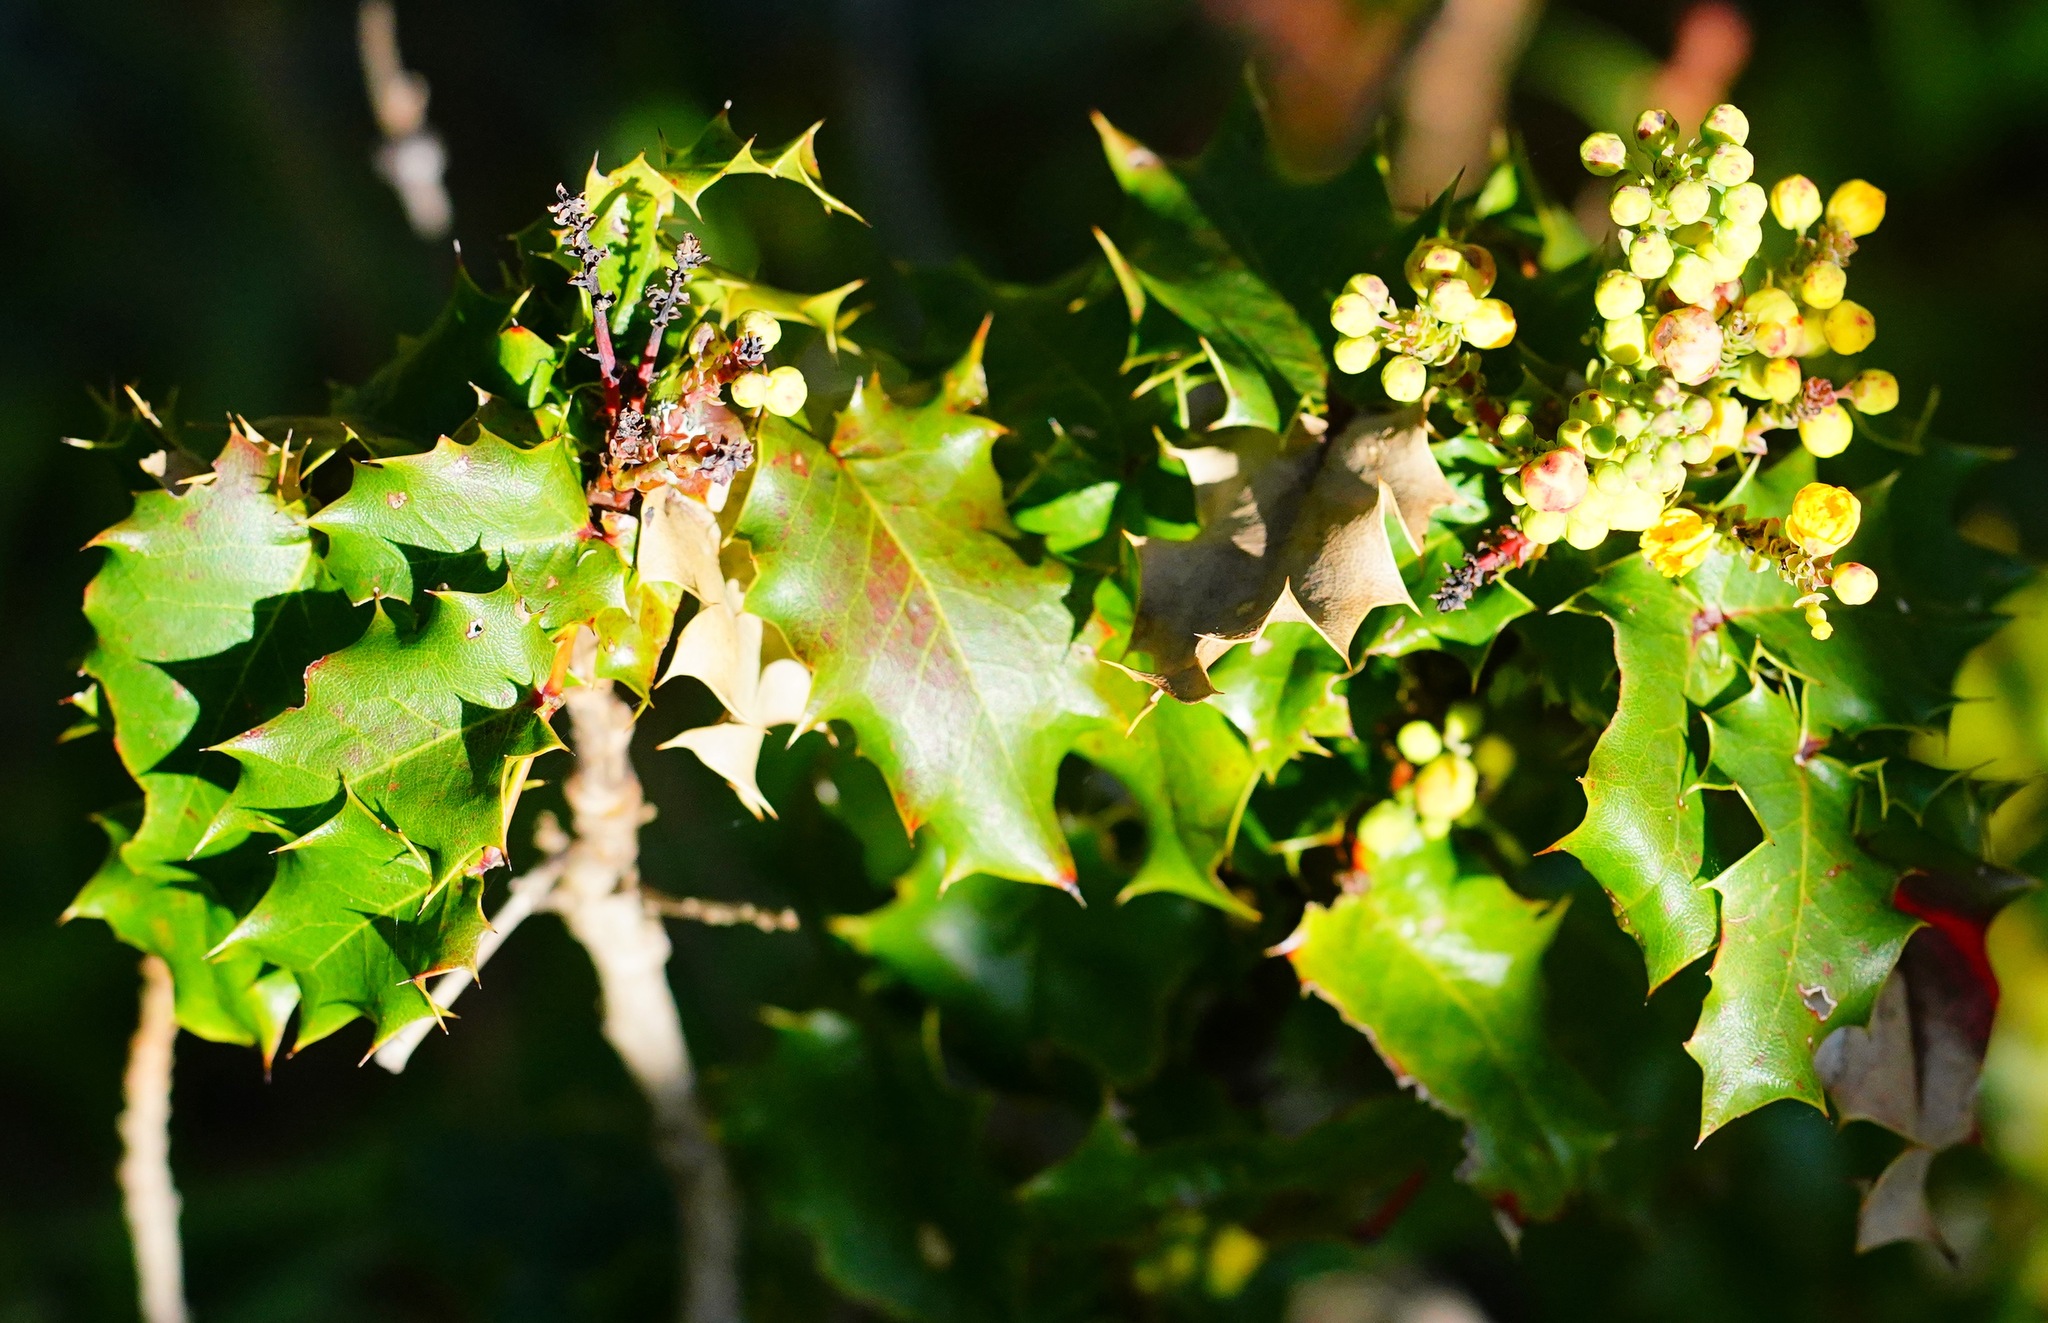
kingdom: Plantae
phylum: Tracheophyta
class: Magnoliopsida
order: Ranunculales
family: Berberidaceae
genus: Mahonia
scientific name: Mahonia
